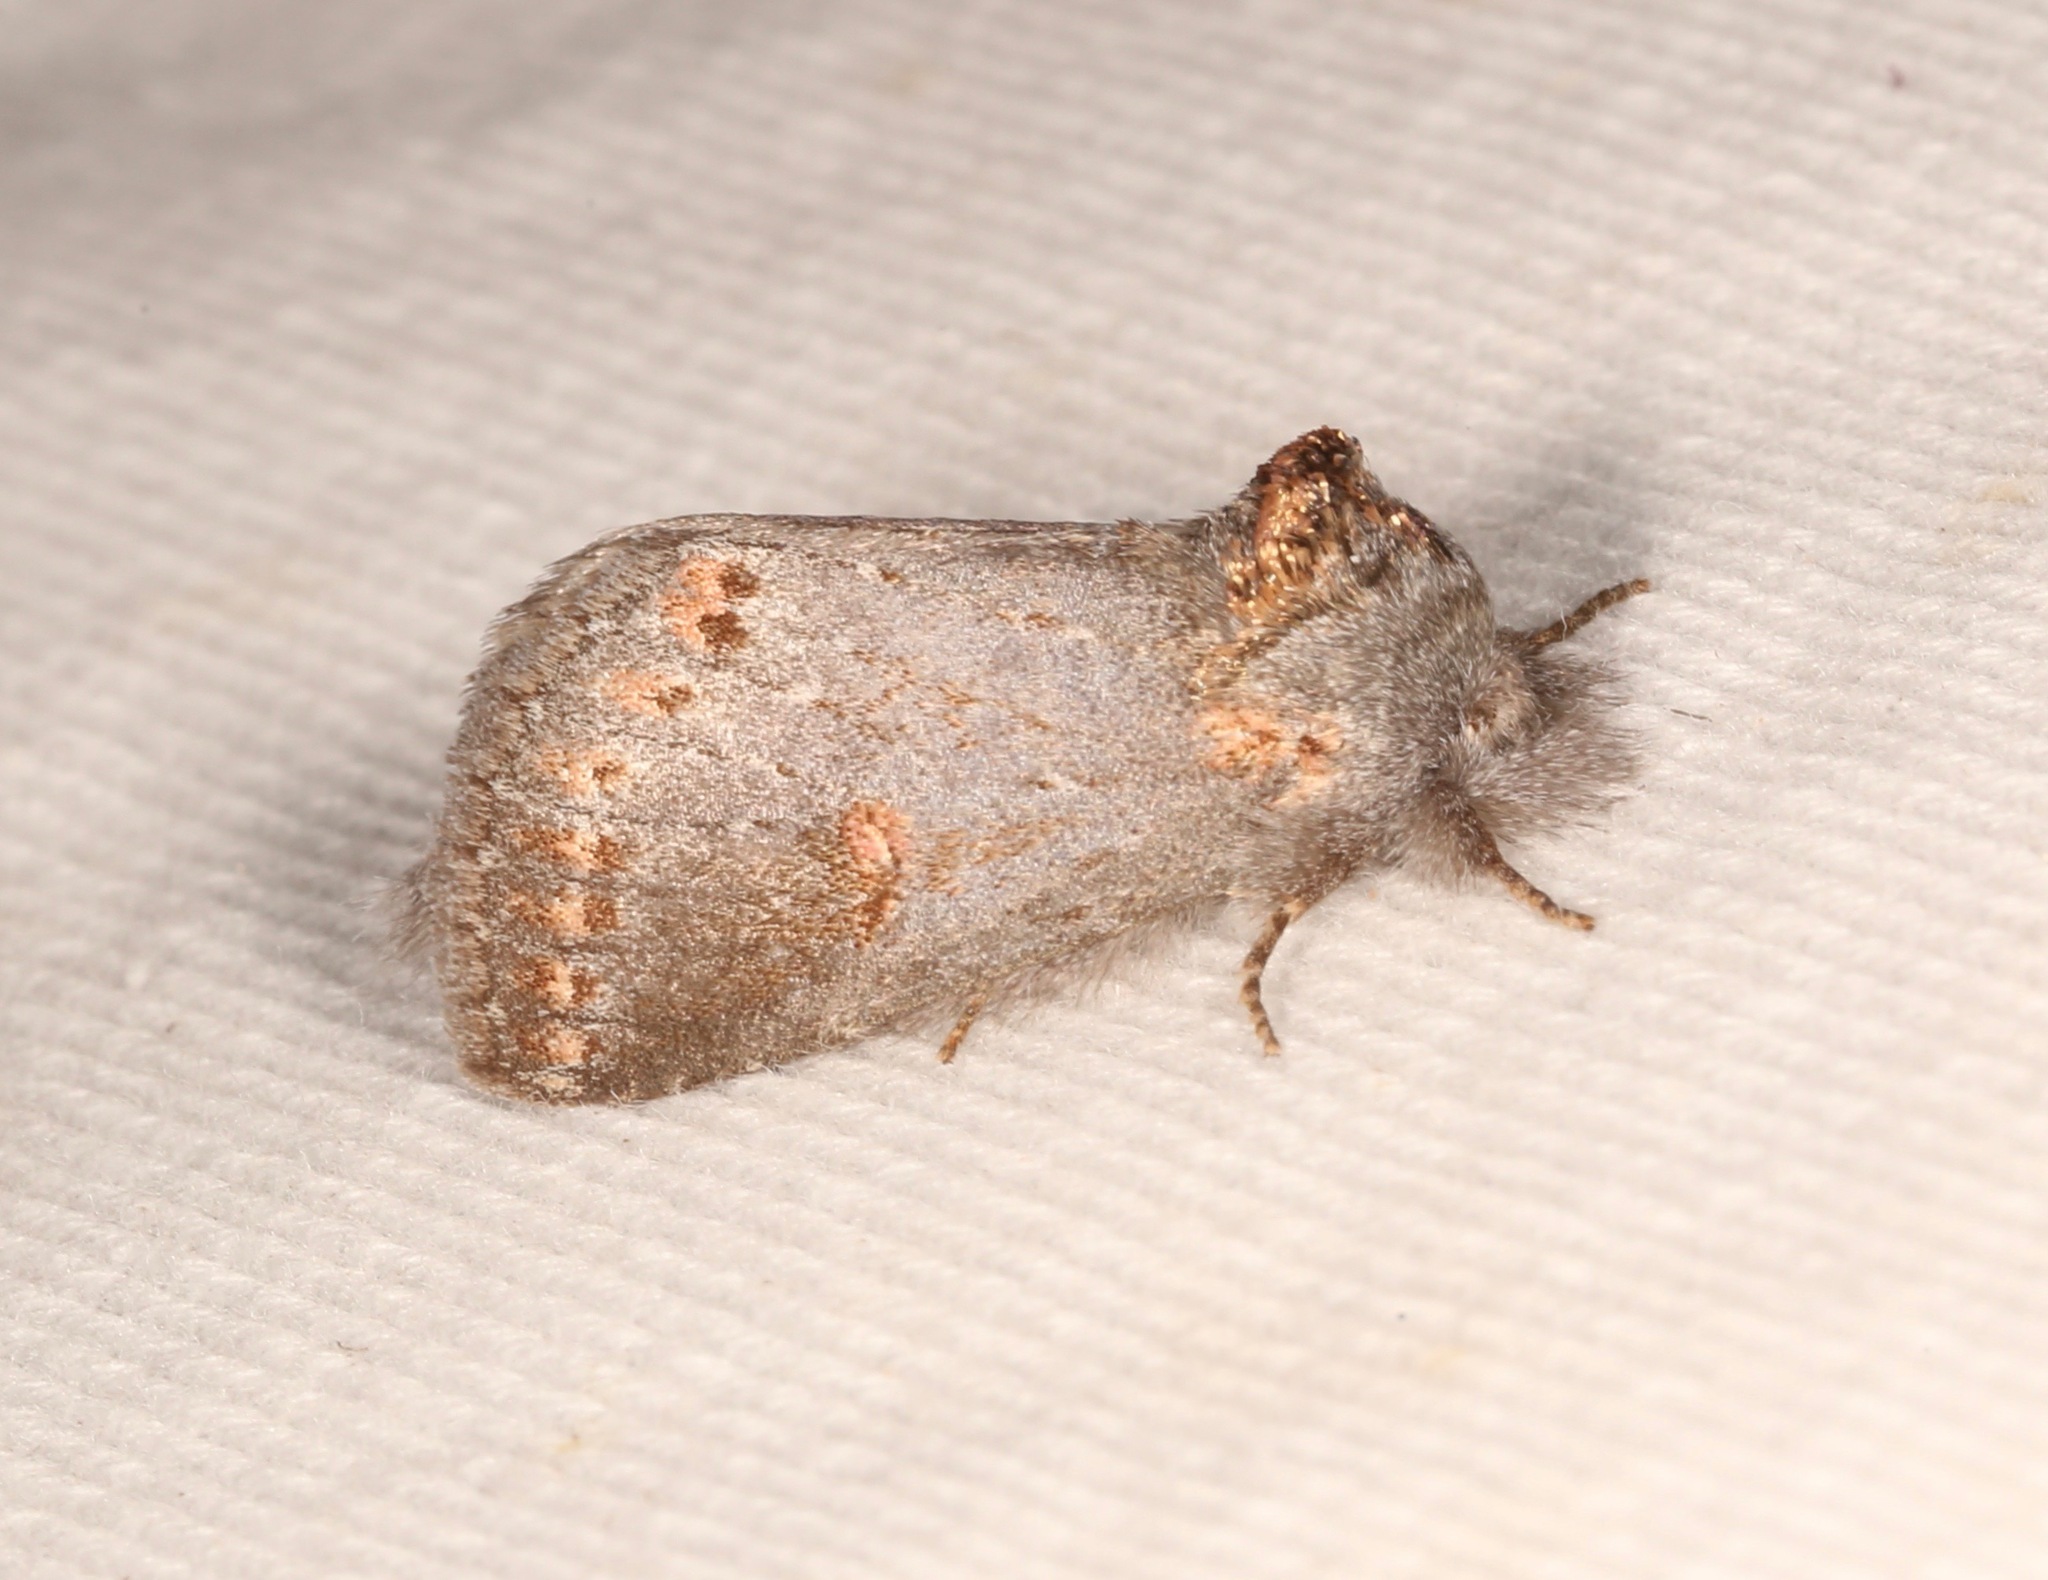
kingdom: Animalia
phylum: Arthropoda
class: Insecta
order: Lepidoptera
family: Notodontidae
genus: Theroa
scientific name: Theroa zethus
